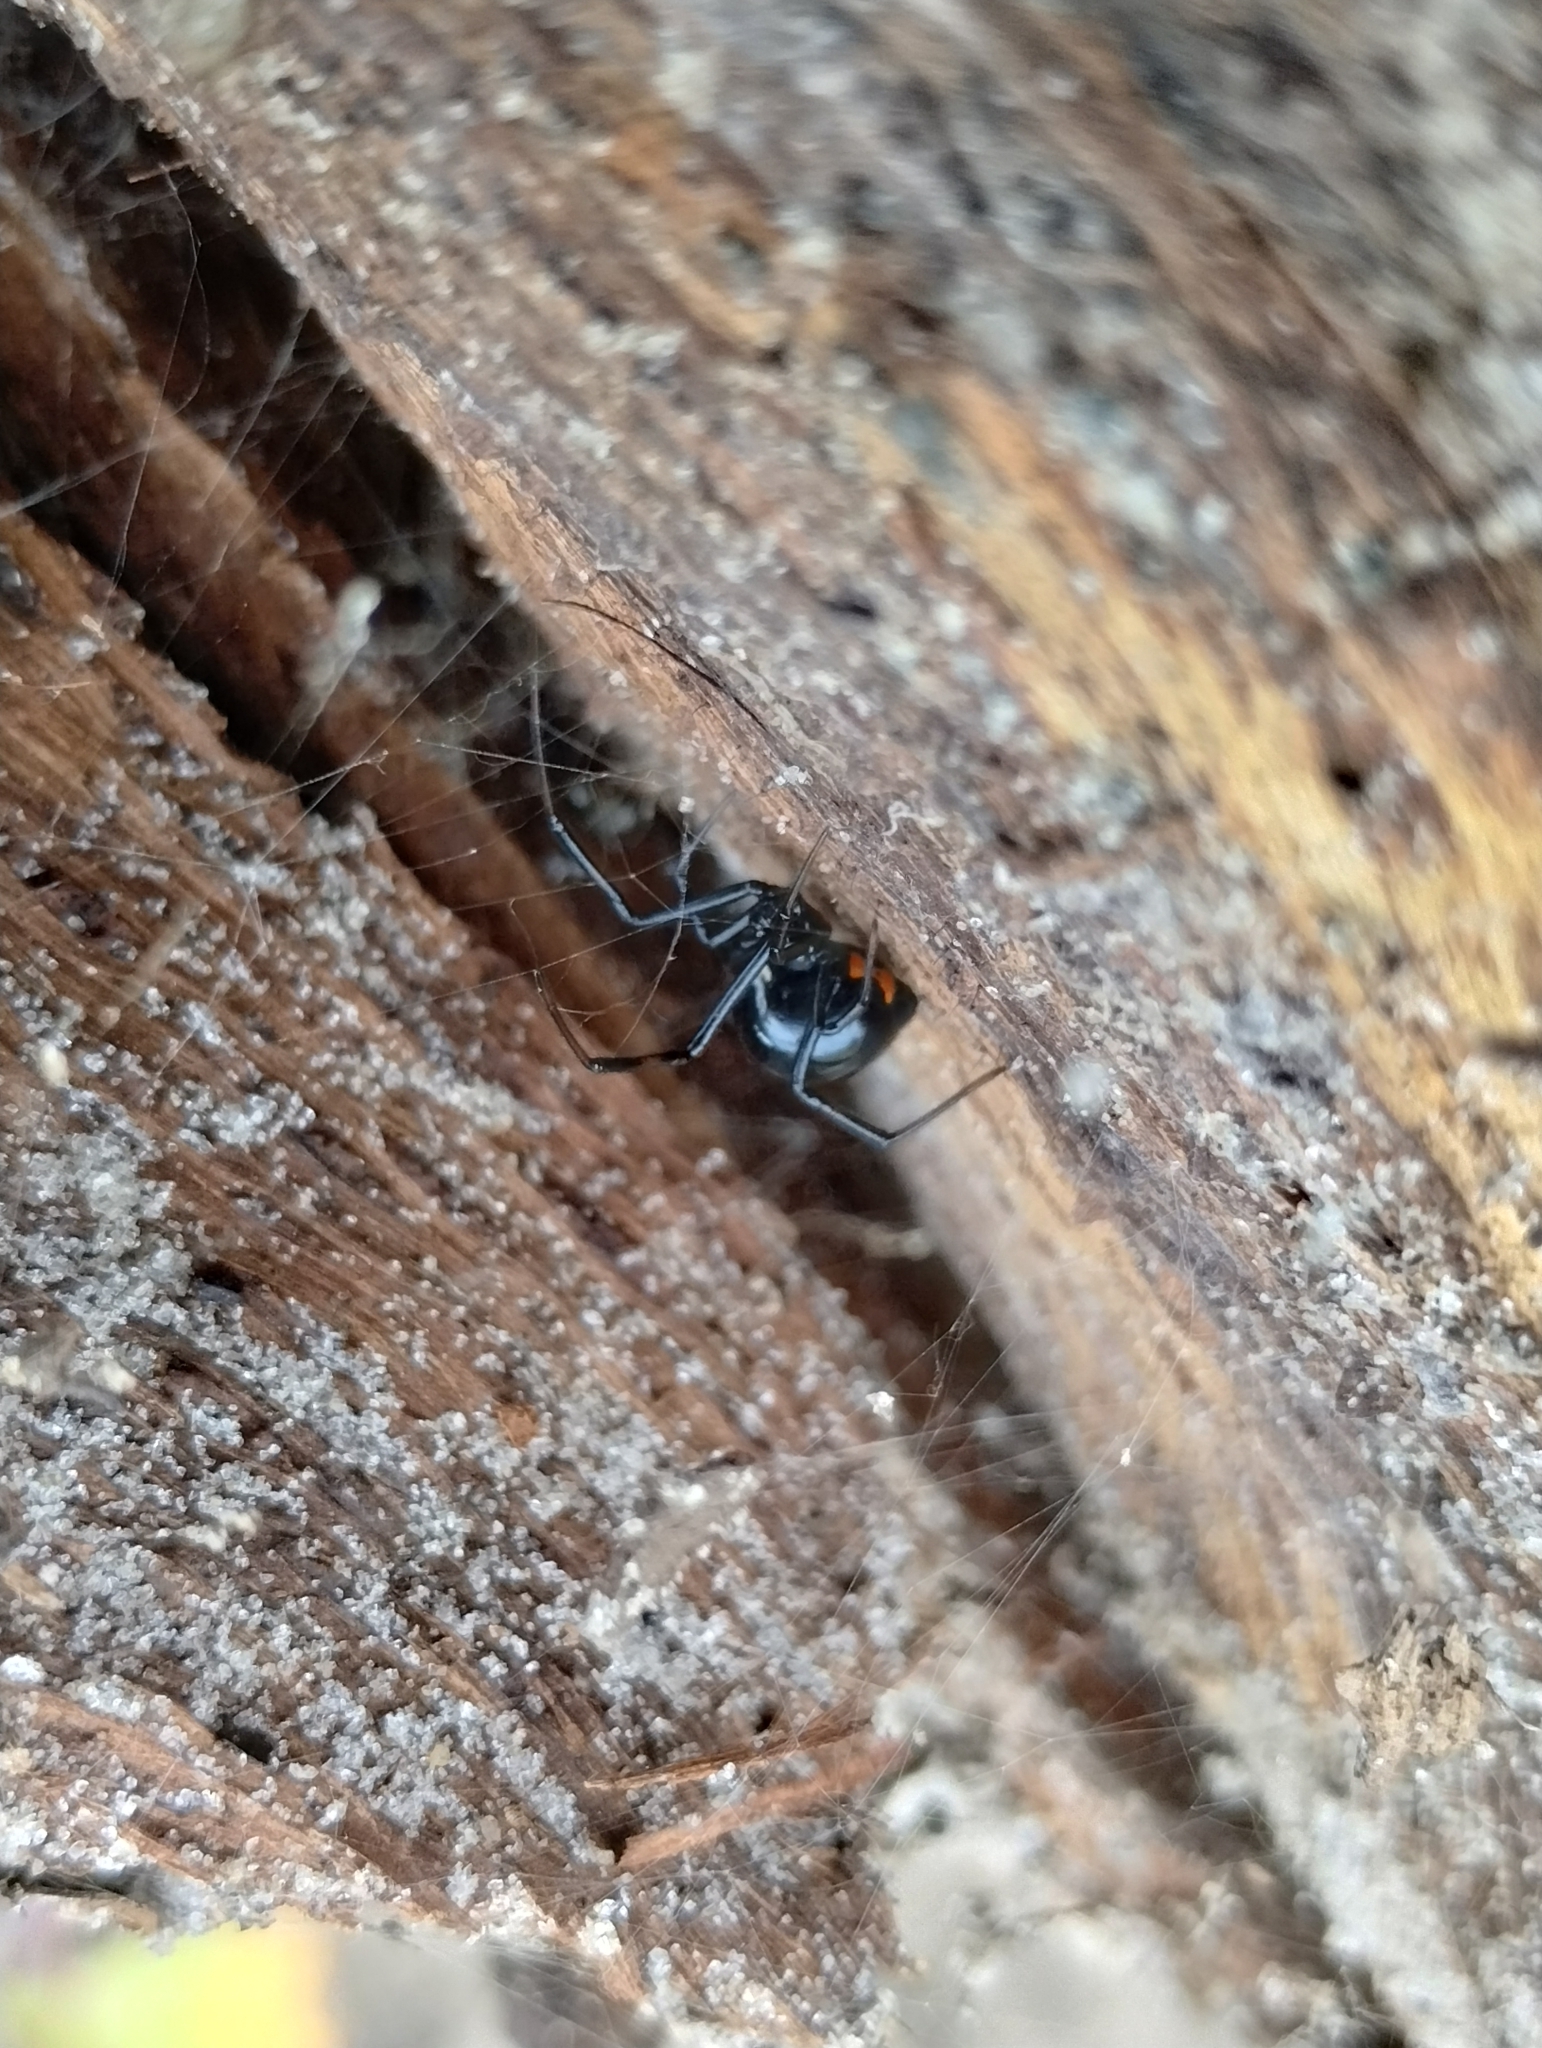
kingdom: Animalia
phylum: Arthropoda
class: Arachnida
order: Araneae
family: Theridiidae
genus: Latrodectus
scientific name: Latrodectus mactans
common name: Cobweb spiders
